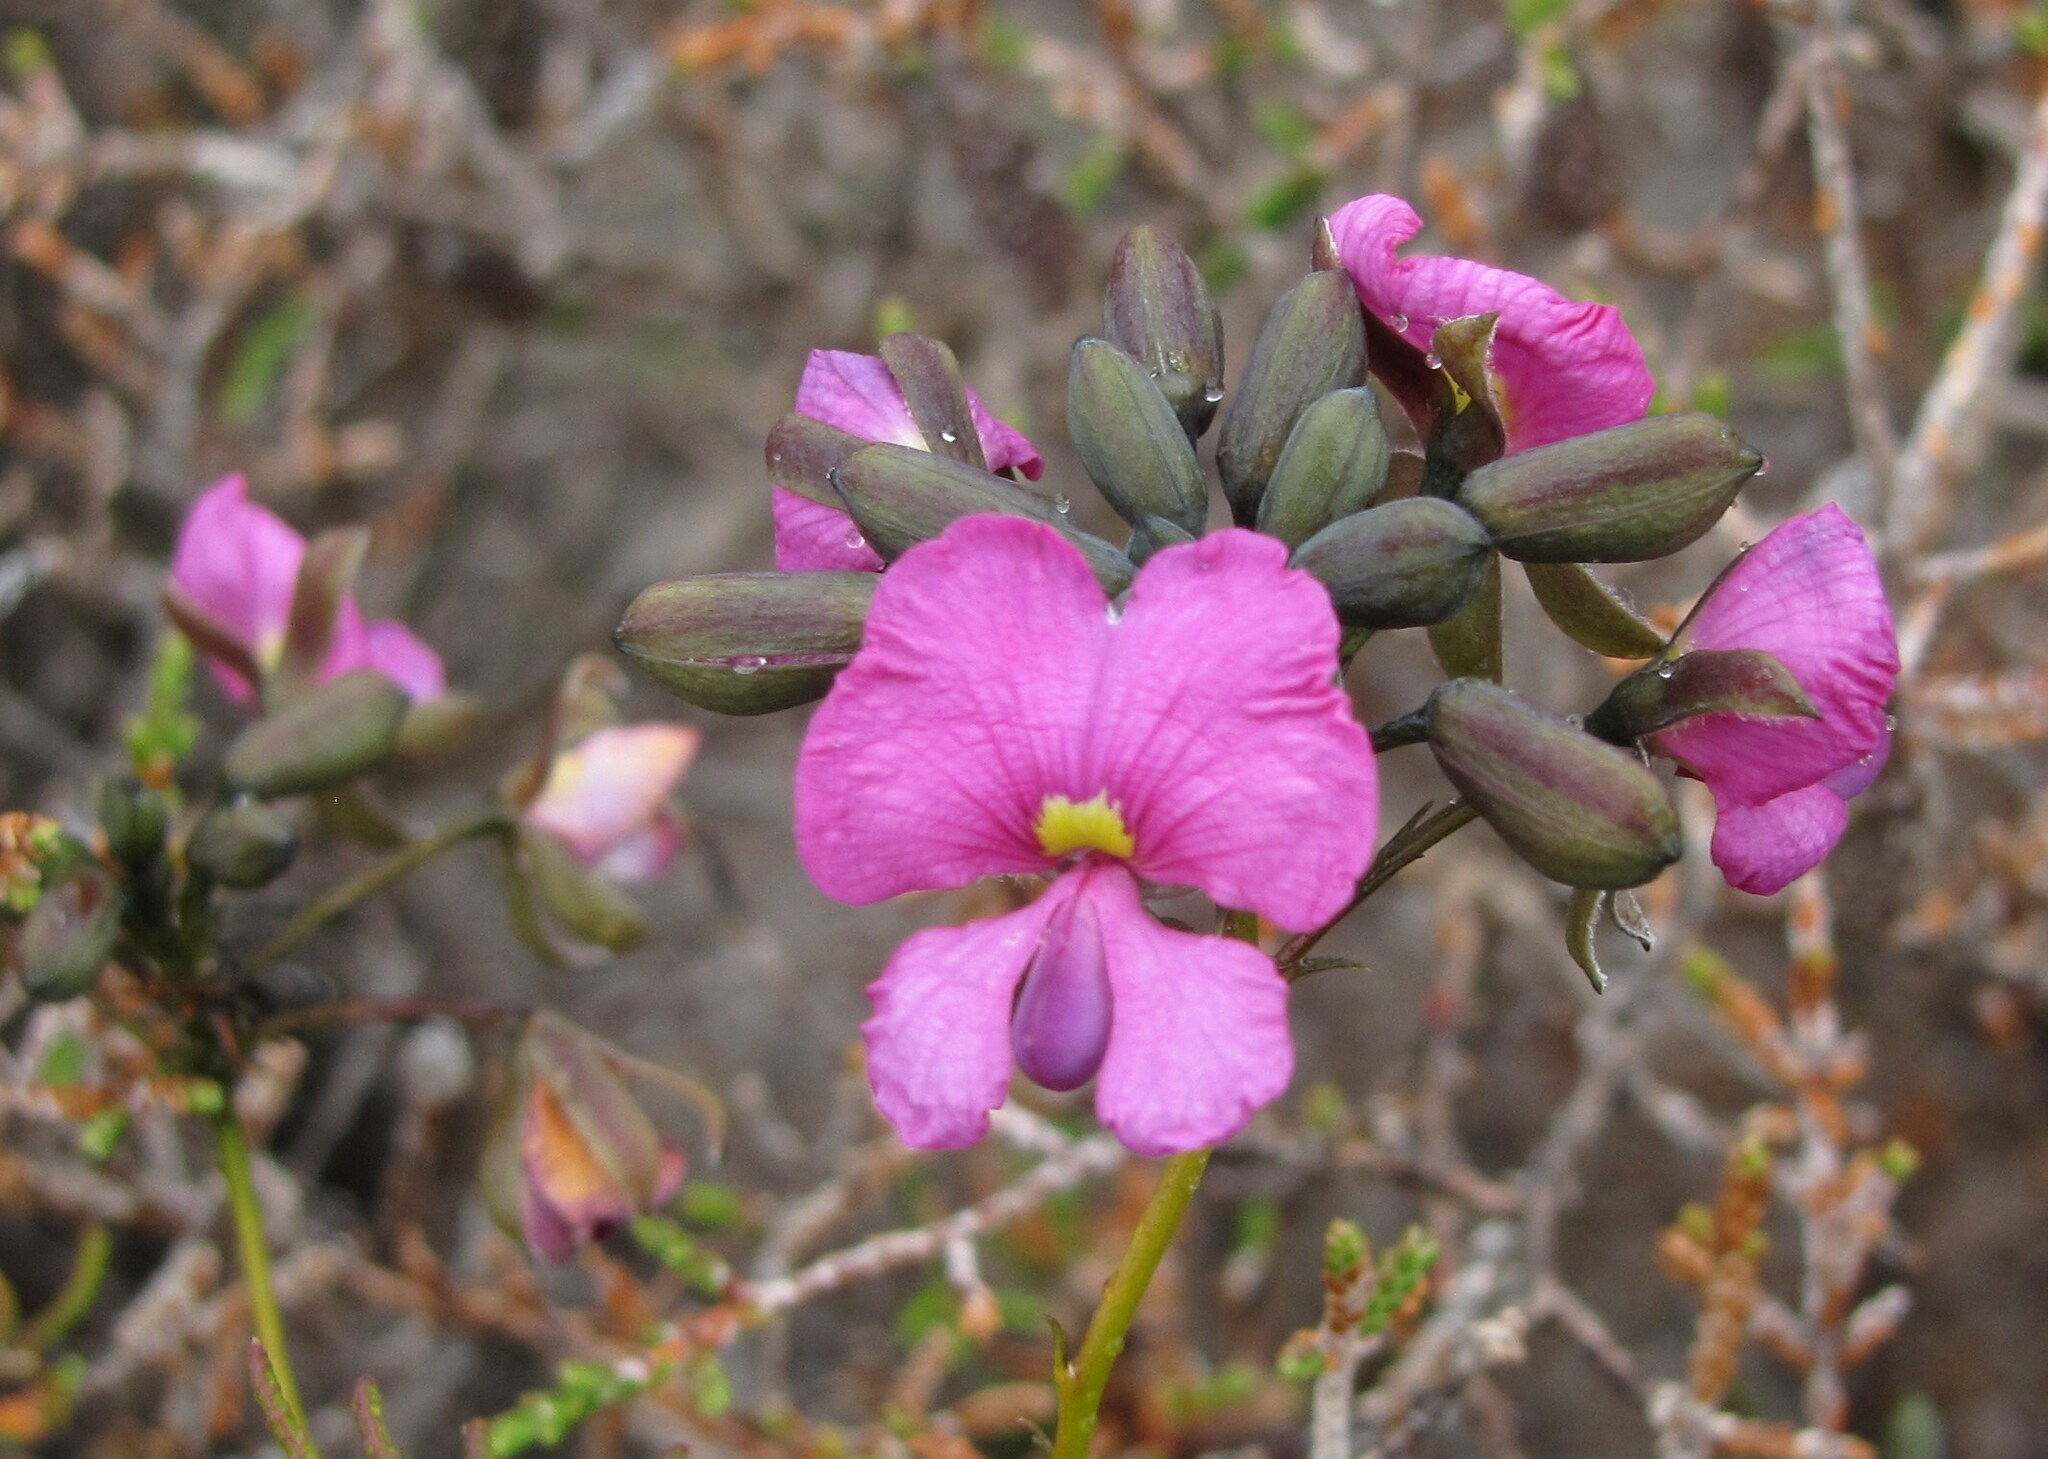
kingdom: Plantae
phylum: Tracheophyta
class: Magnoliopsida
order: Fabales
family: Fabaceae
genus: Gompholobium
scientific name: Gompholobium venustum
